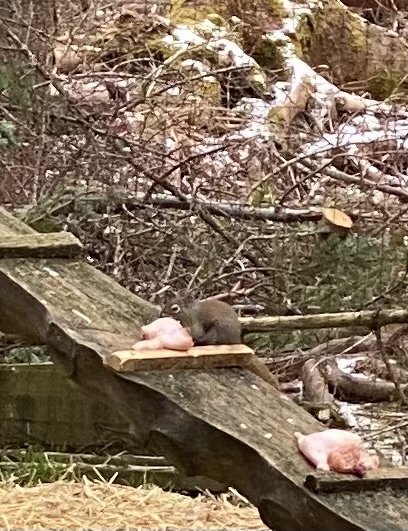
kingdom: Animalia
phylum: Chordata
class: Mammalia
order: Rodentia
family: Sciuridae
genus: Tamiasciurus
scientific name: Tamiasciurus hudsonicus
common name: Red squirrel
